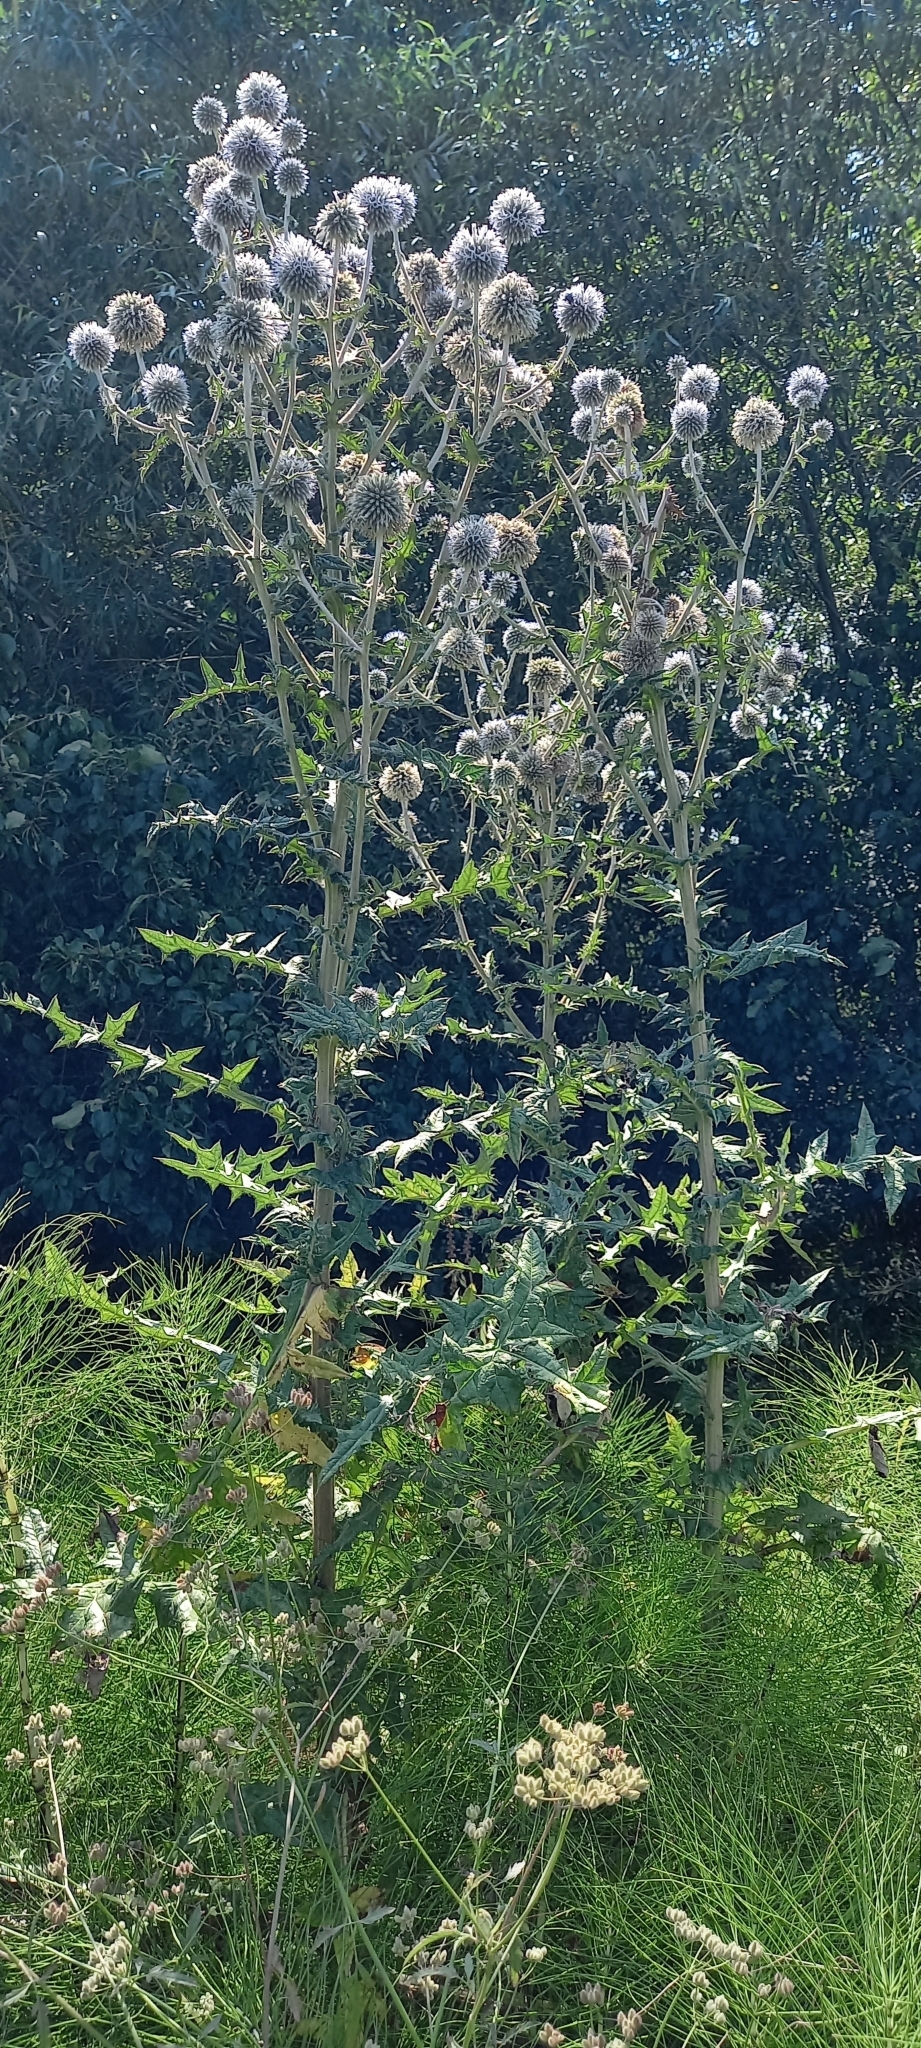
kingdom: Plantae
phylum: Tracheophyta
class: Magnoliopsida
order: Asterales
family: Asteraceae
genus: Echinops
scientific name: Echinops sphaerocephalus
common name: Glandular globe-thistle
